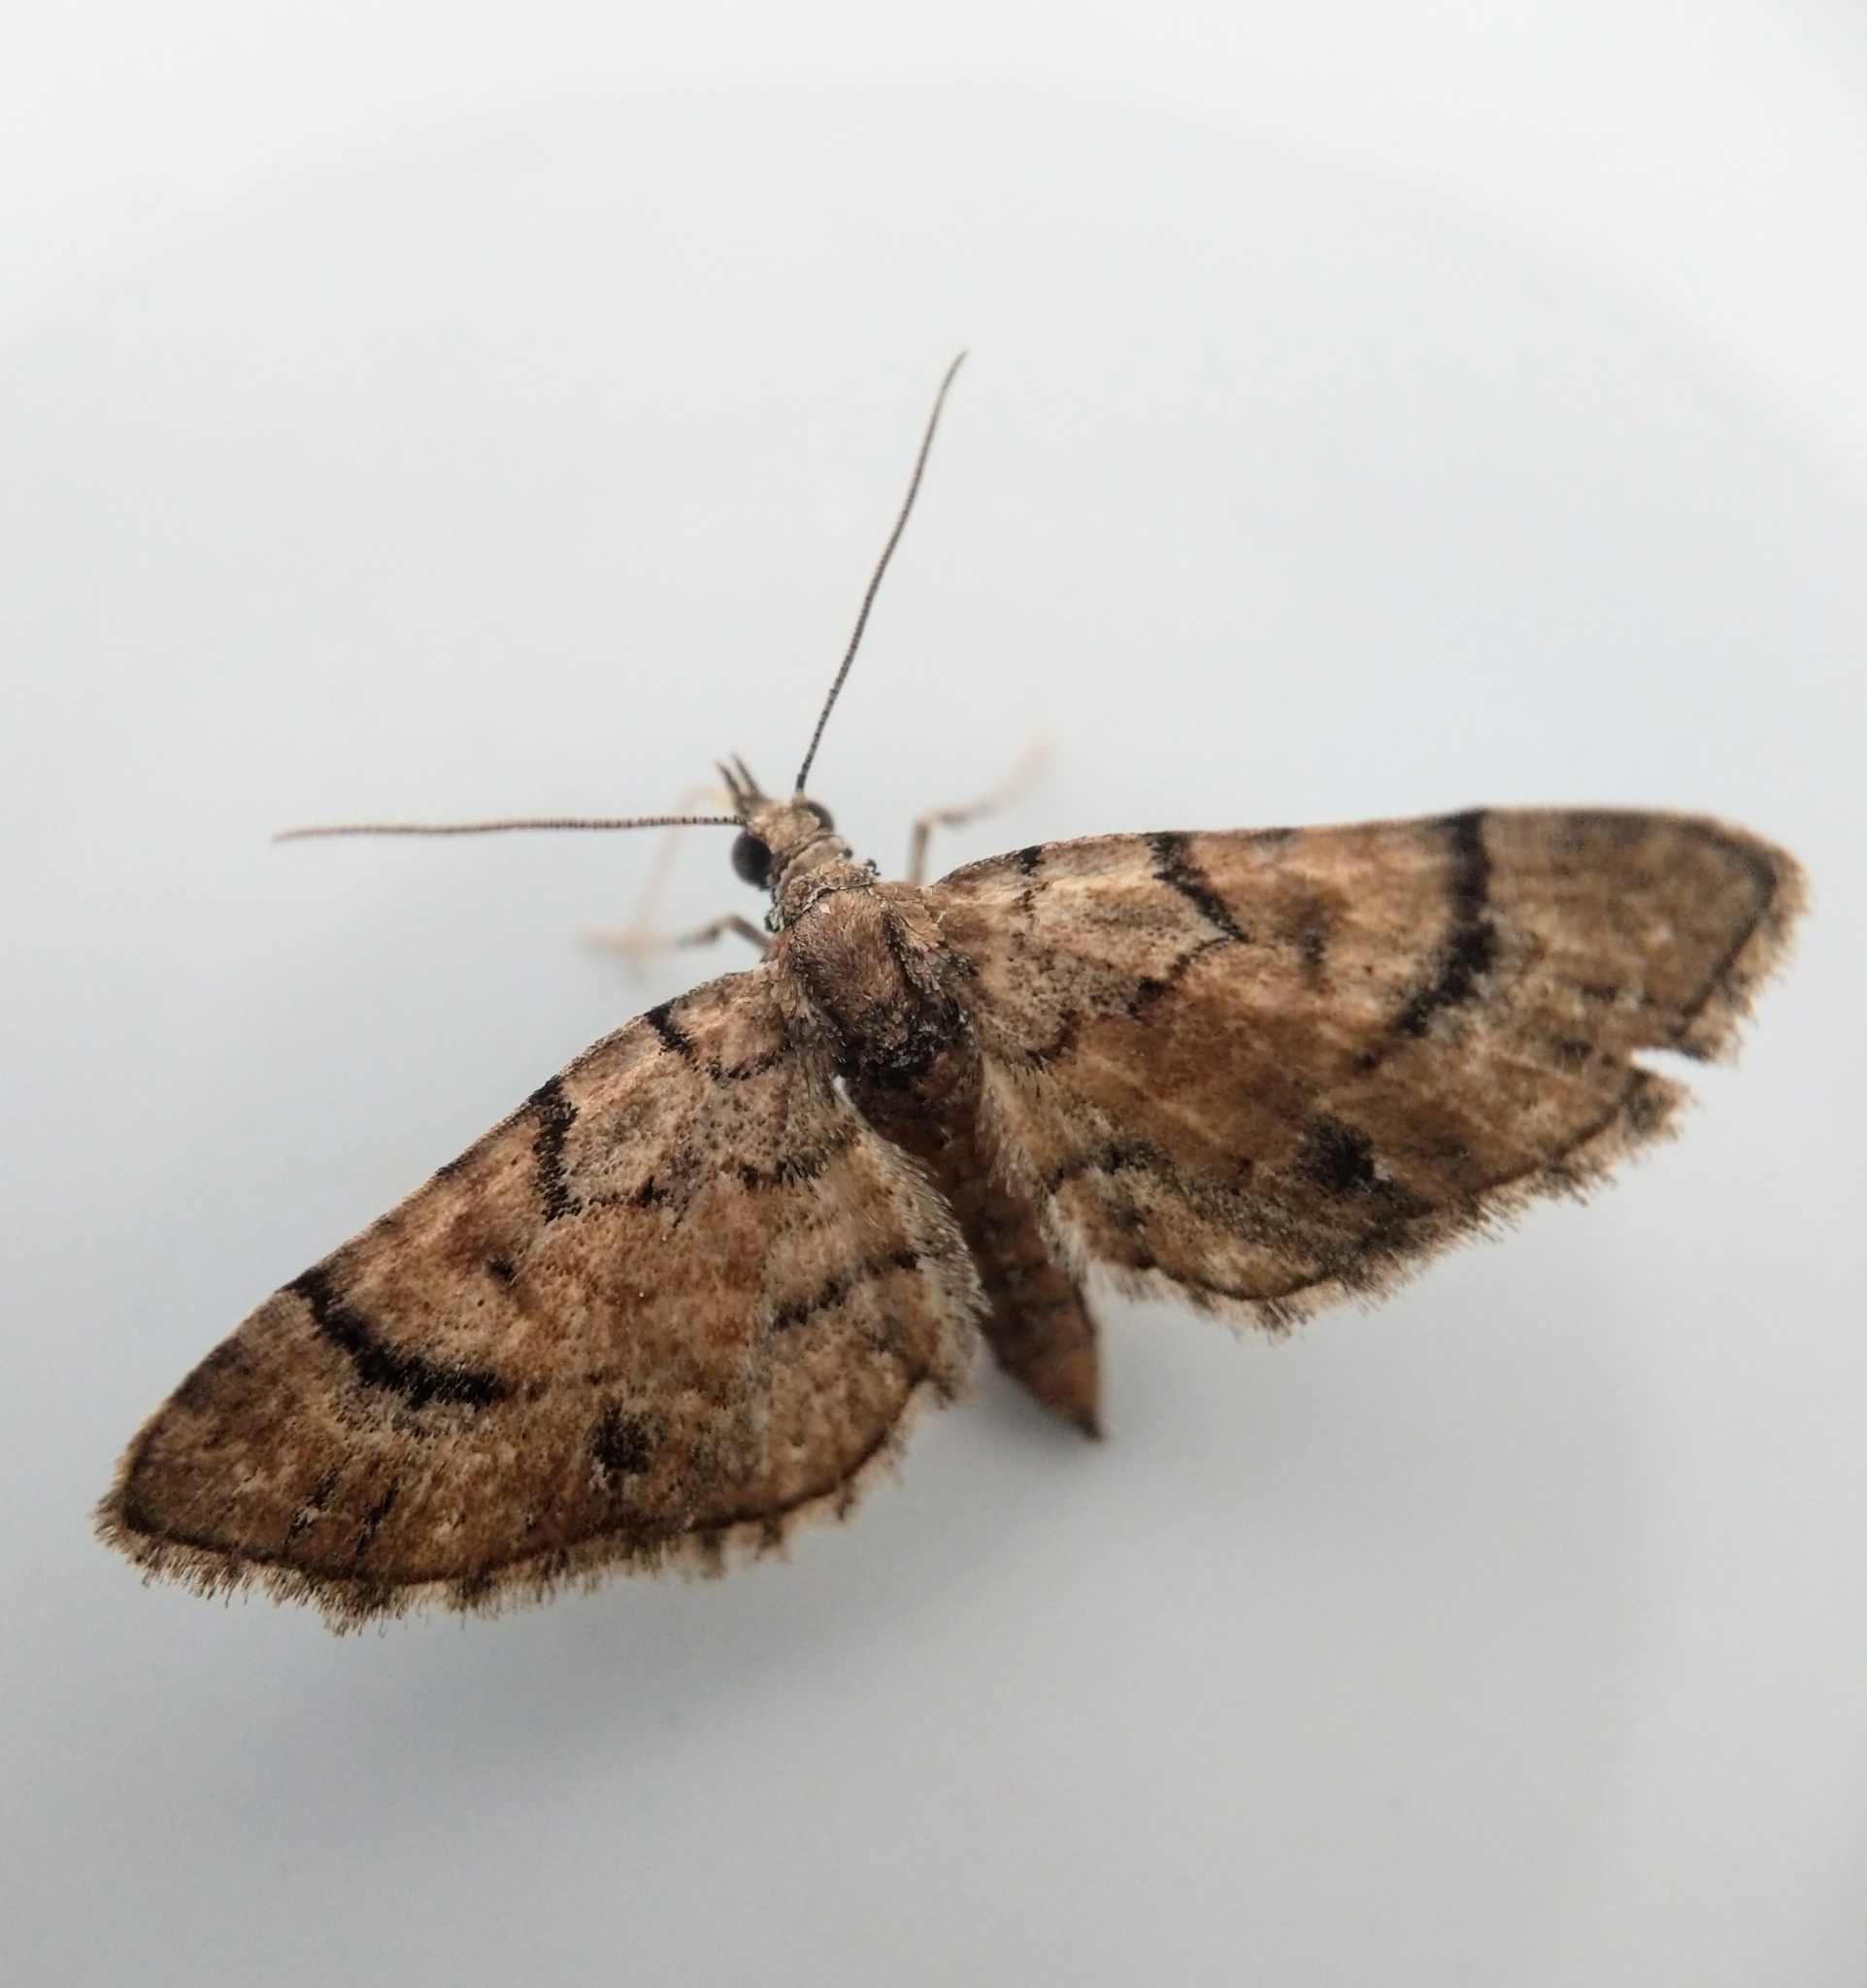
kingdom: Animalia
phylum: Arthropoda
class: Insecta
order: Lepidoptera
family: Geometridae
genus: Eupithecia
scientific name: Eupithecia peckorum
